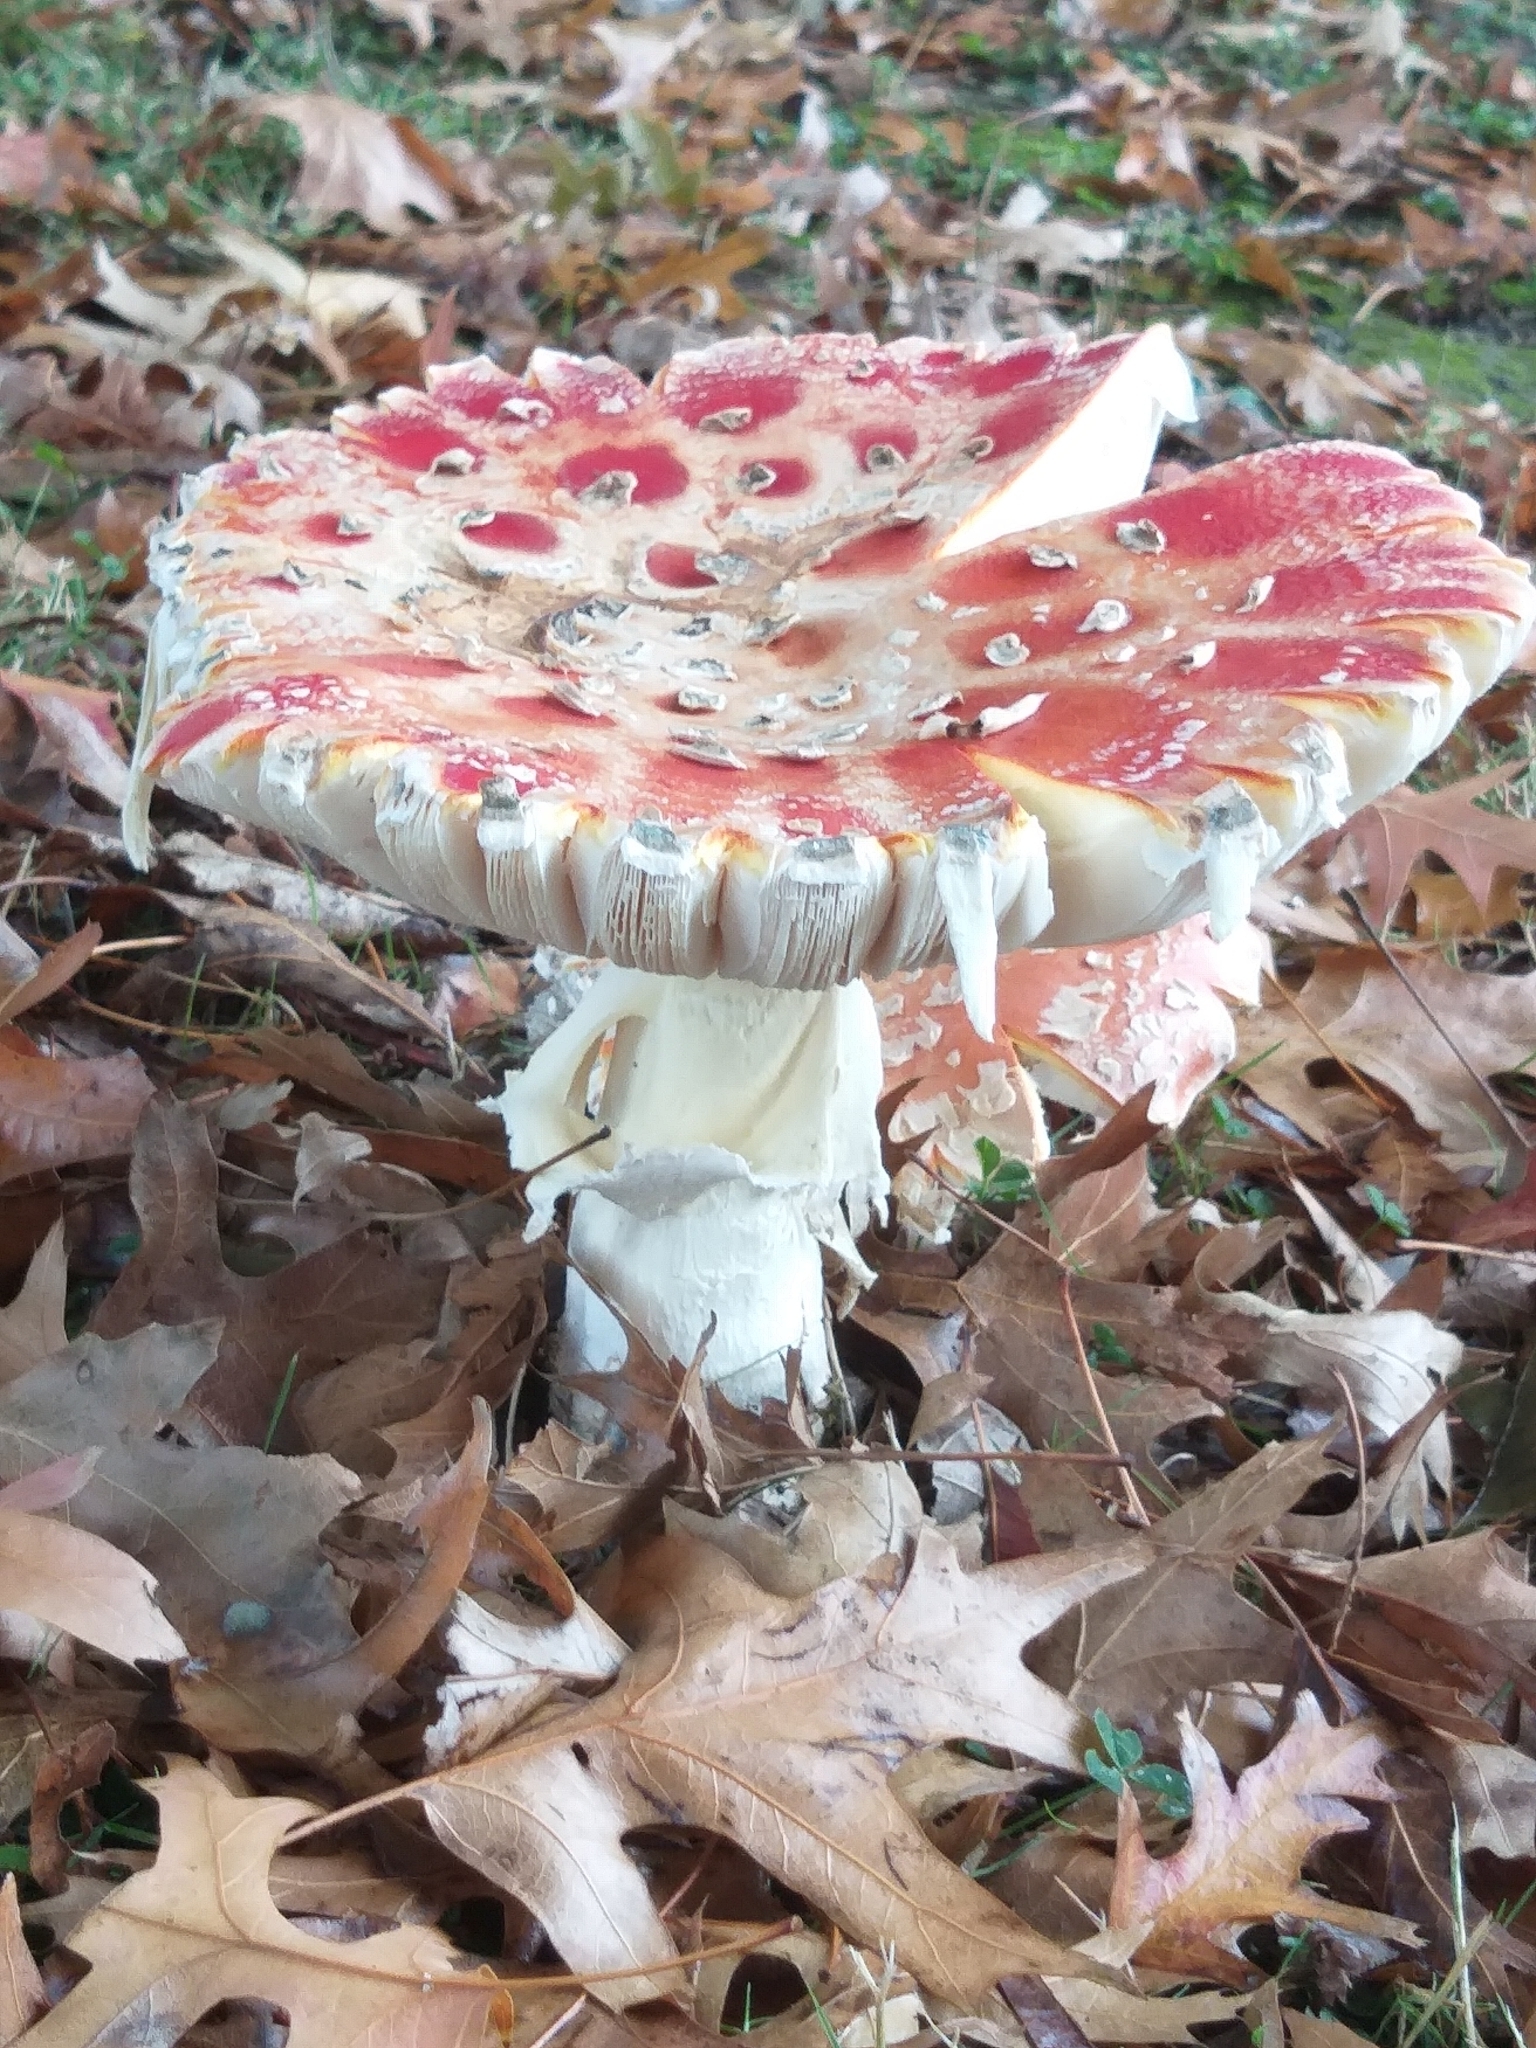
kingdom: Fungi
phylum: Basidiomycota
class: Agaricomycetes
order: Agaricales
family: Amanitaceae
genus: Amanita
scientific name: Amanita muscaria
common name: Fly agaric
